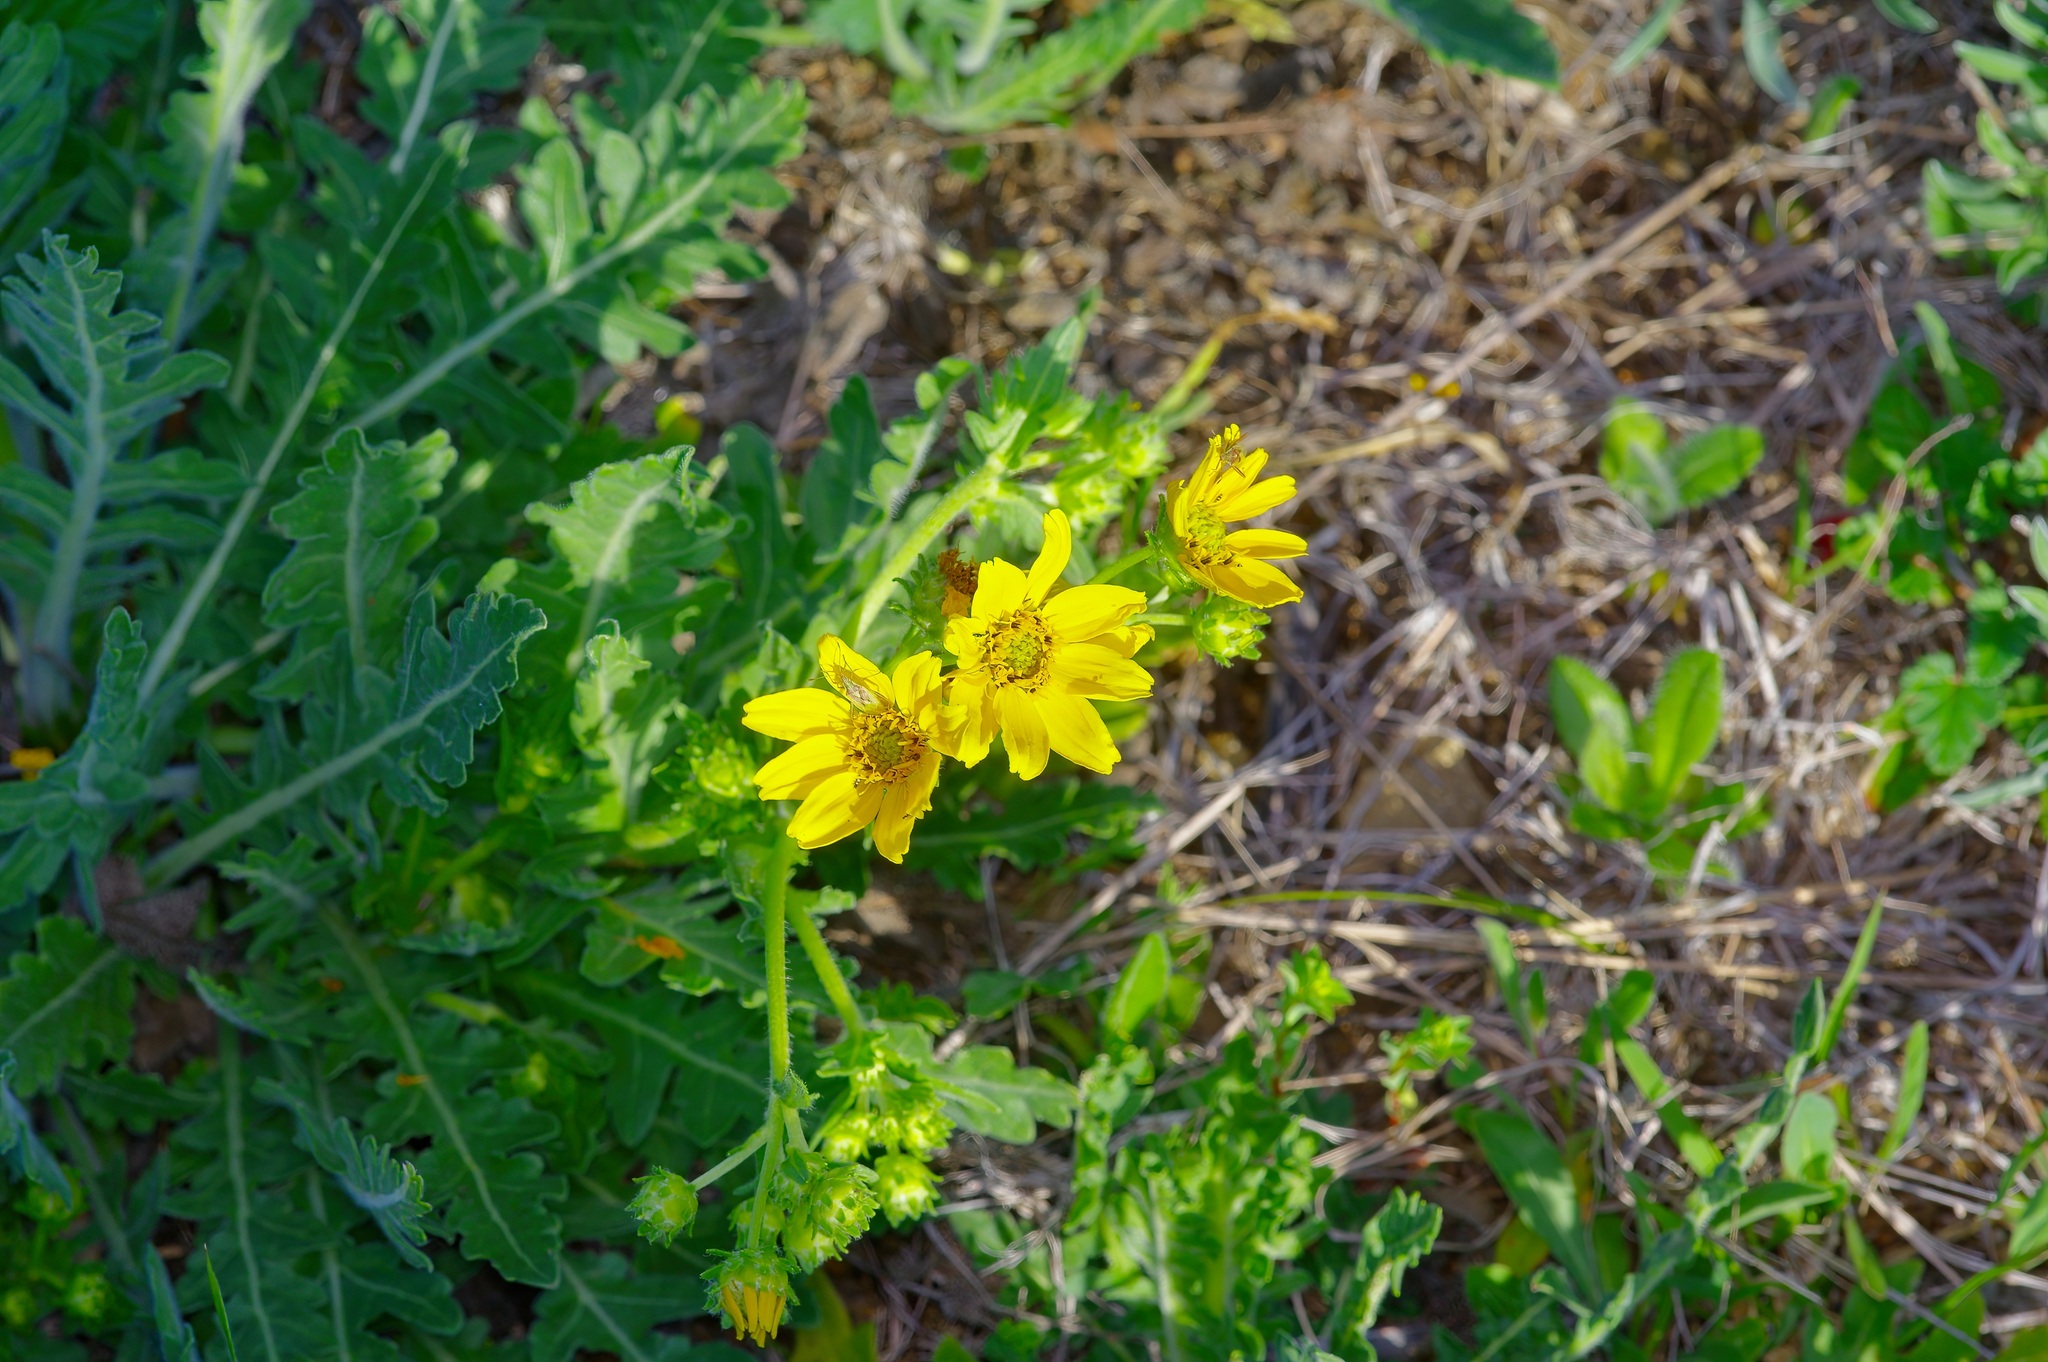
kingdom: Plantae
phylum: Tracheophyta
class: Magnoliopsida
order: Asterales
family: Asteraceae
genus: Engelmannia
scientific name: Engelmannia peristenia
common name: Engelmann's daisy
